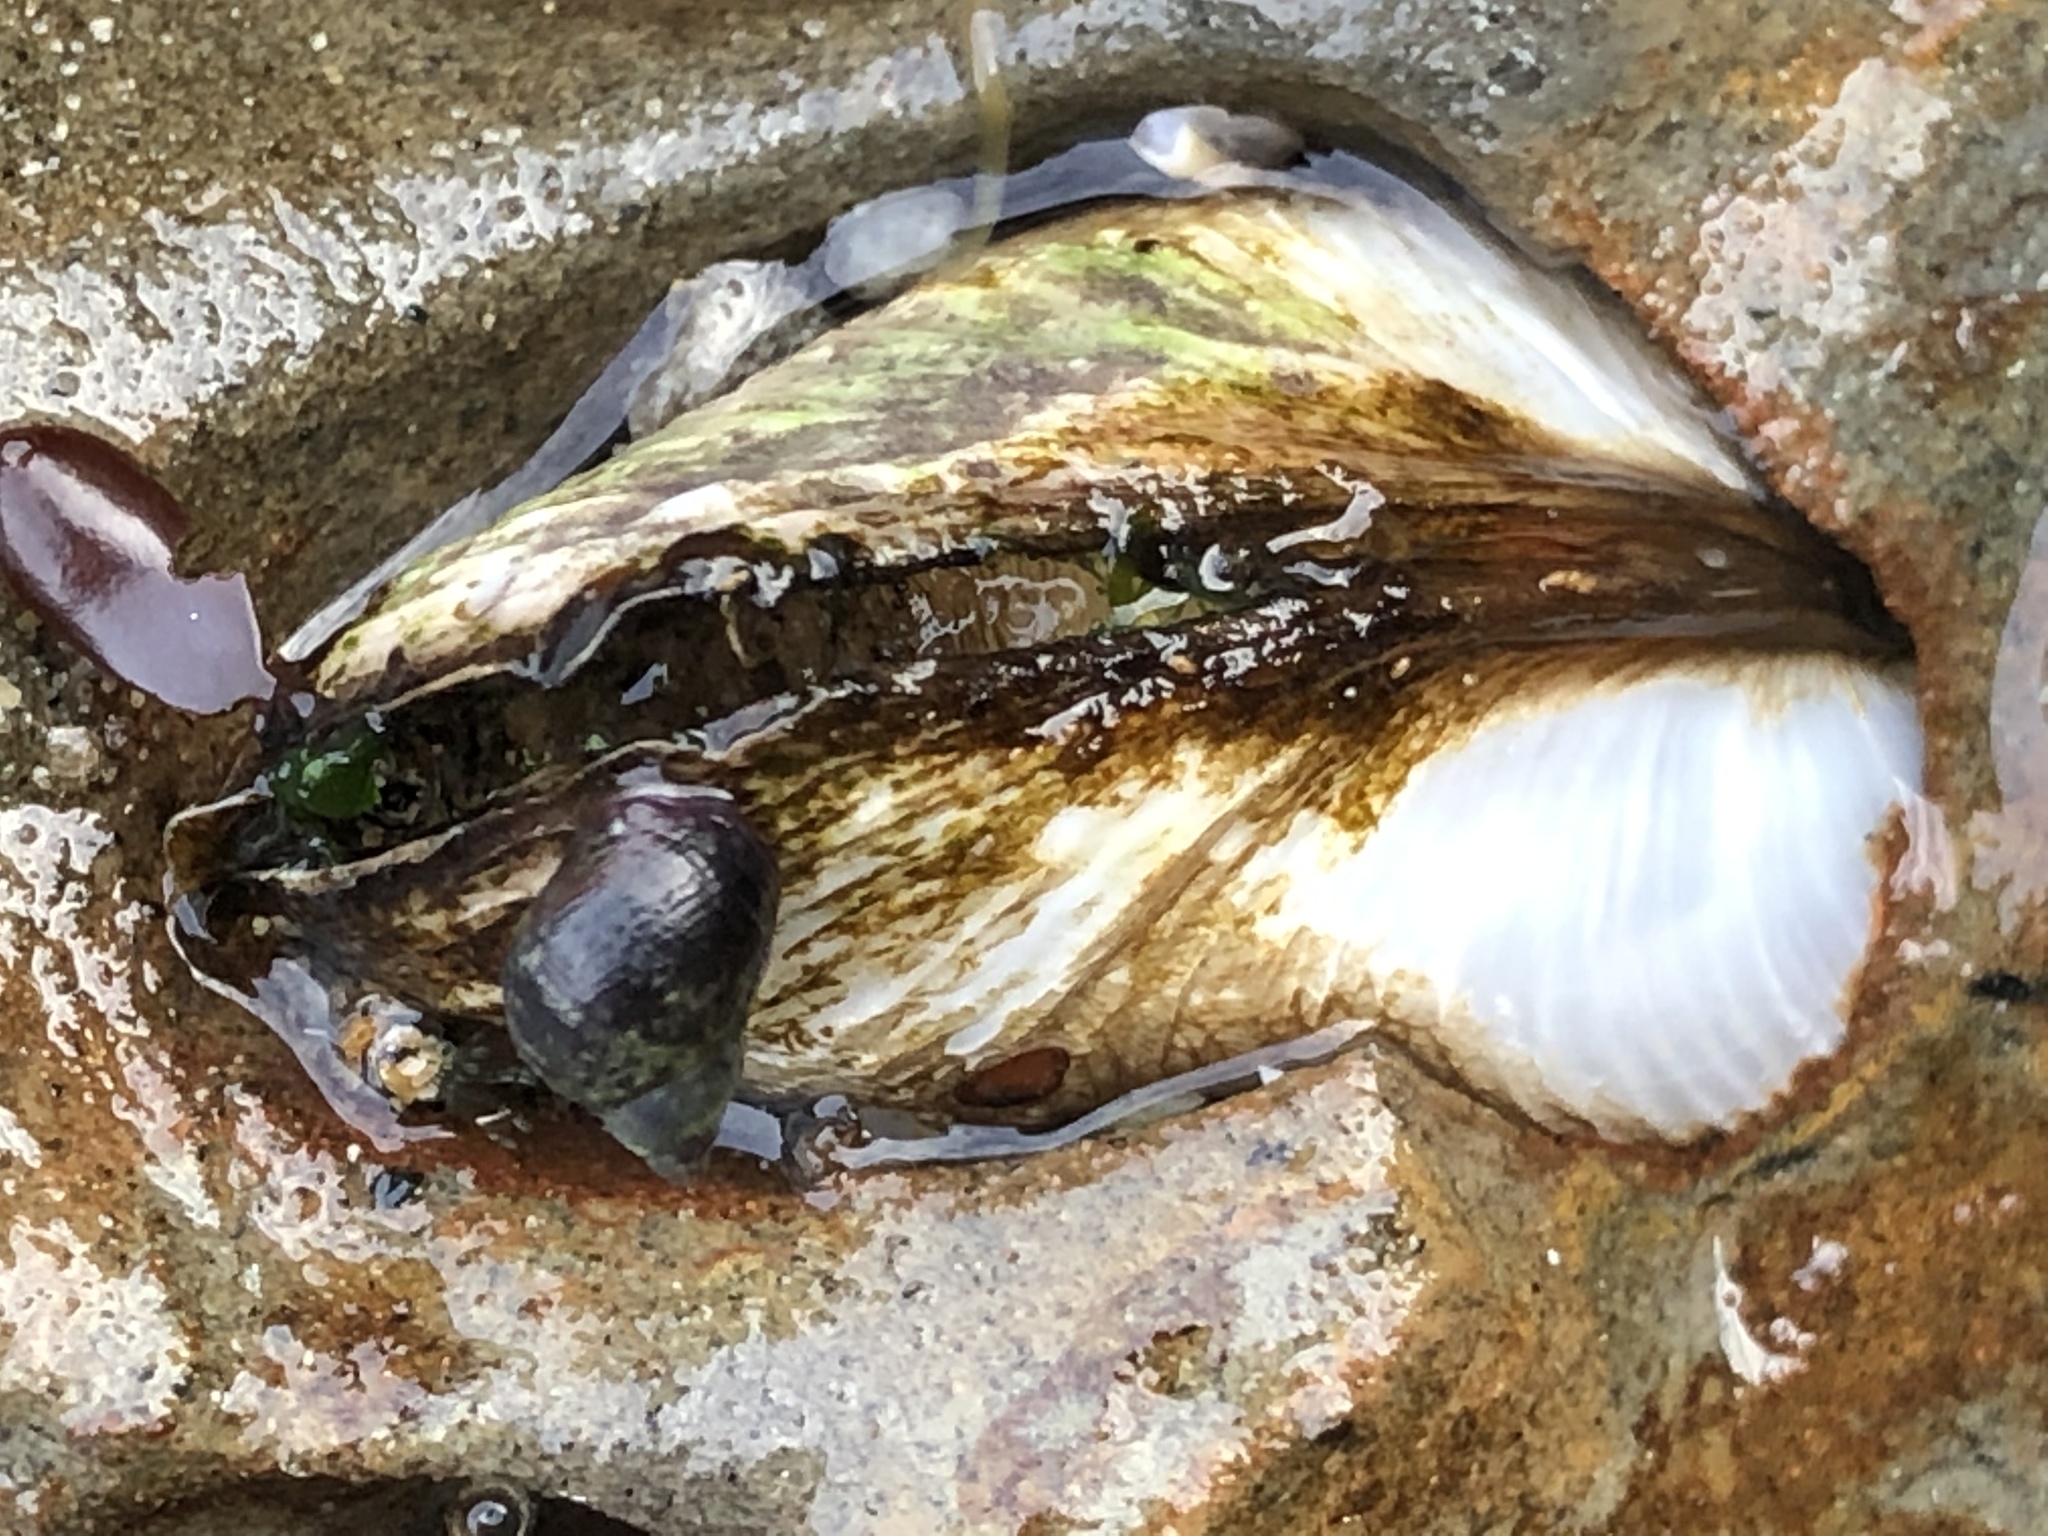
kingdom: Animalia
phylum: Mollusca
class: Bivalvia
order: Myida
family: Pholadidae
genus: Parapholas
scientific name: Parapholas californica
